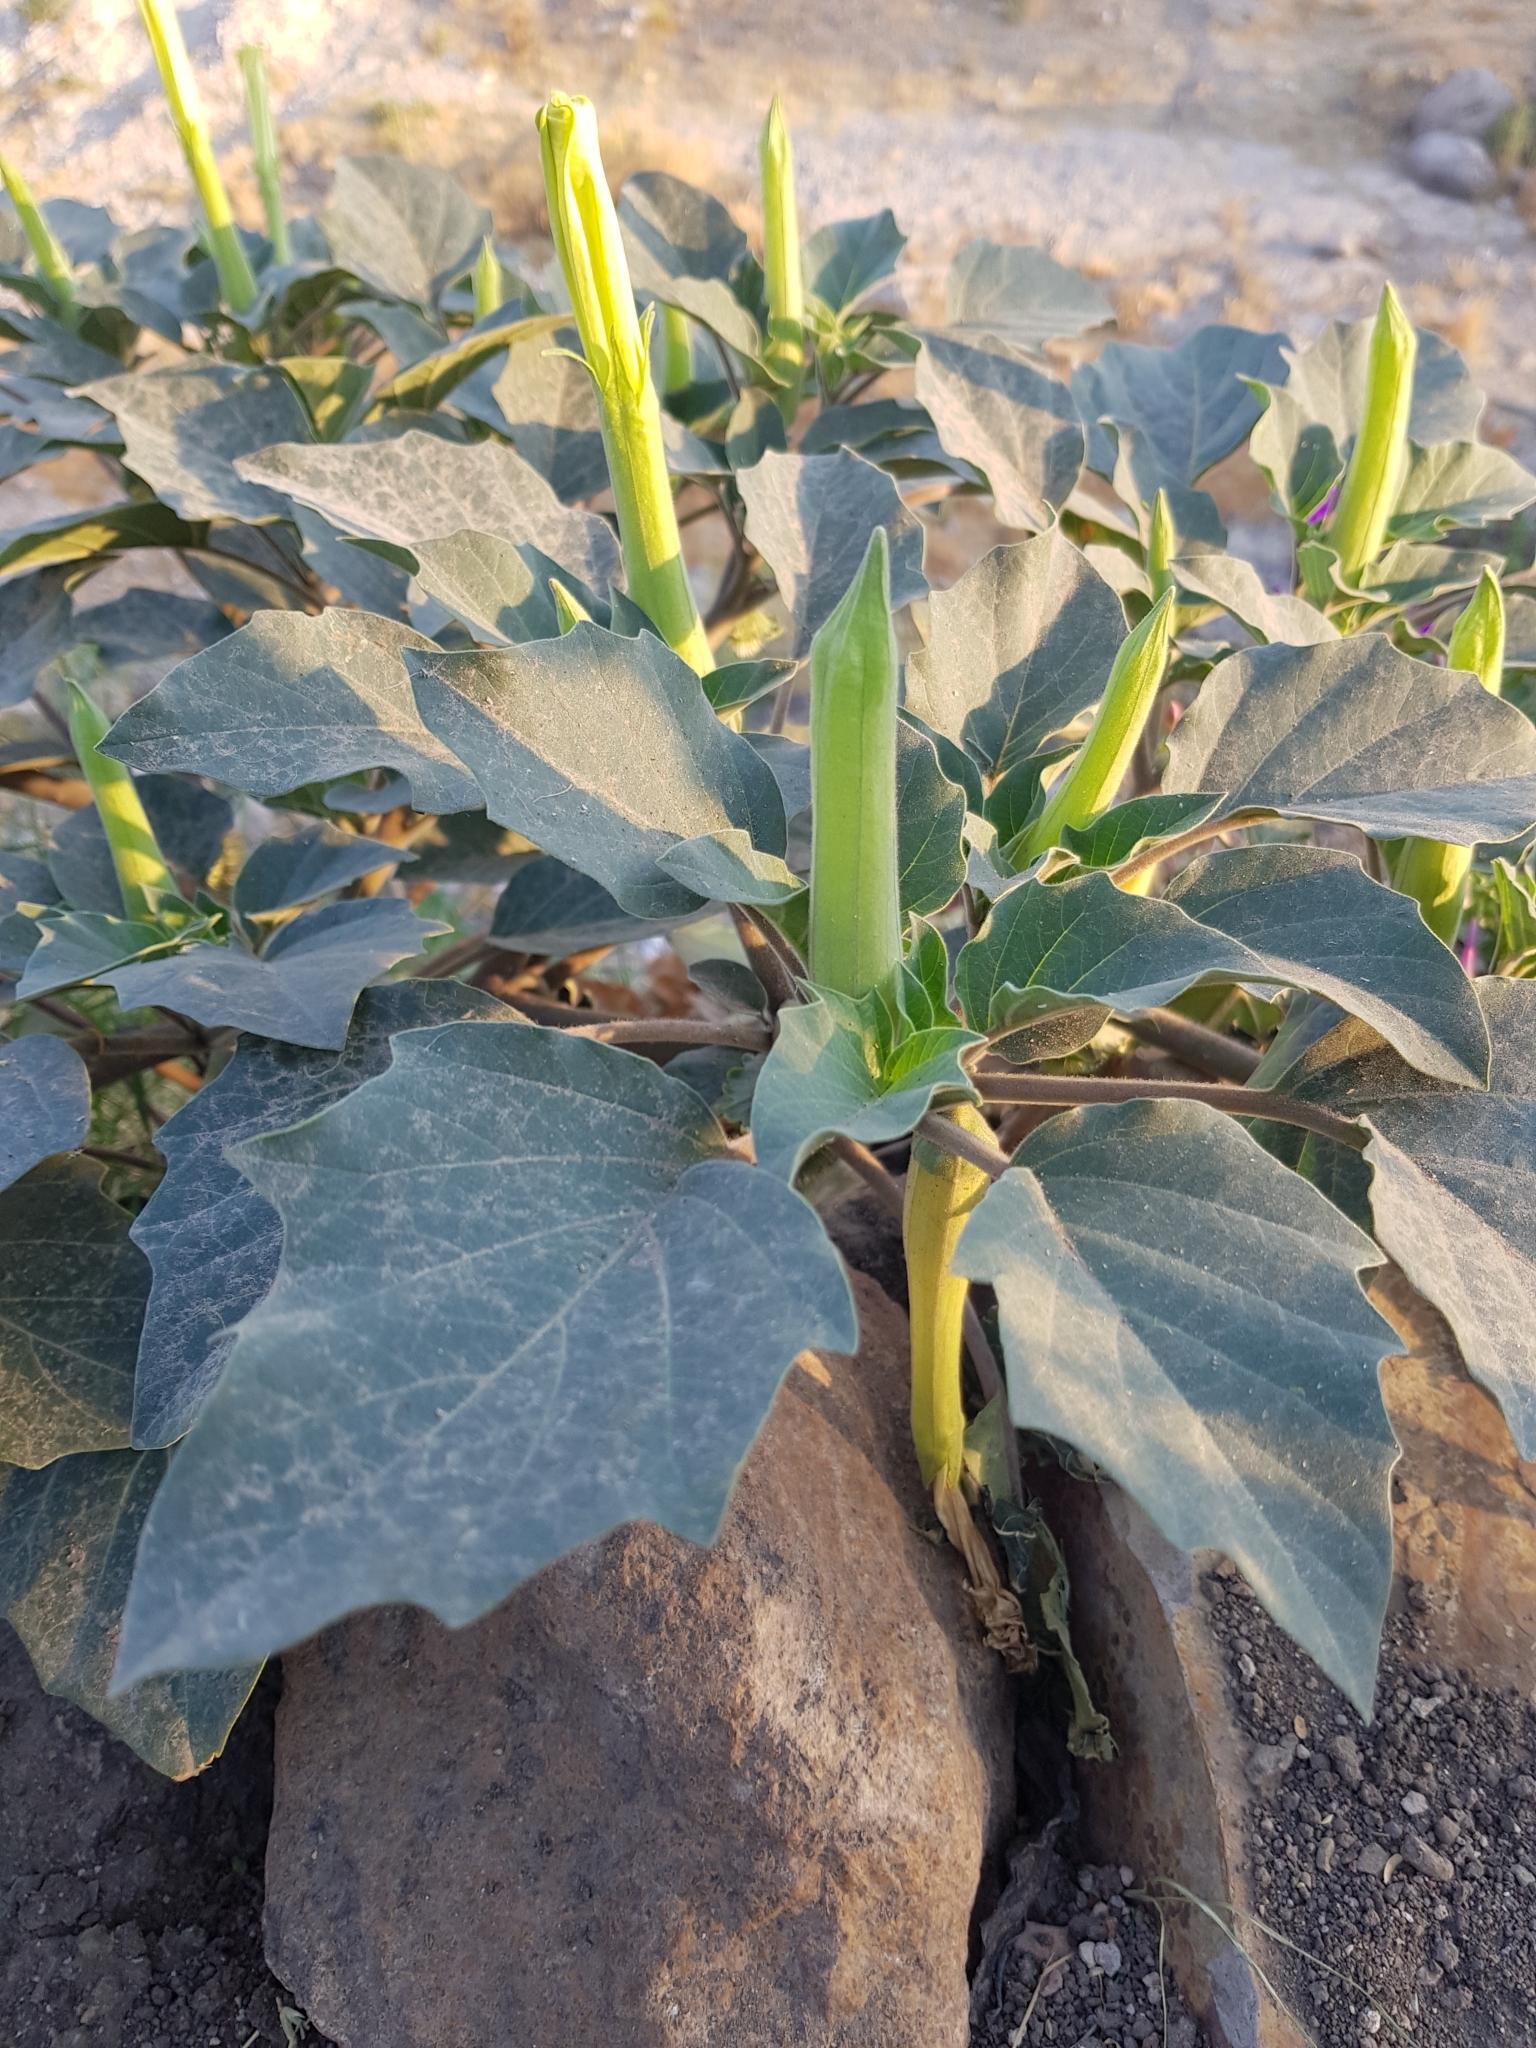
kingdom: Plantae
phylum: Tracheophyta
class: Magnoliopsida
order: Solanales
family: Solanaceae
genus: Datura
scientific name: Datura innoxia
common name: Downy thorn-apple
